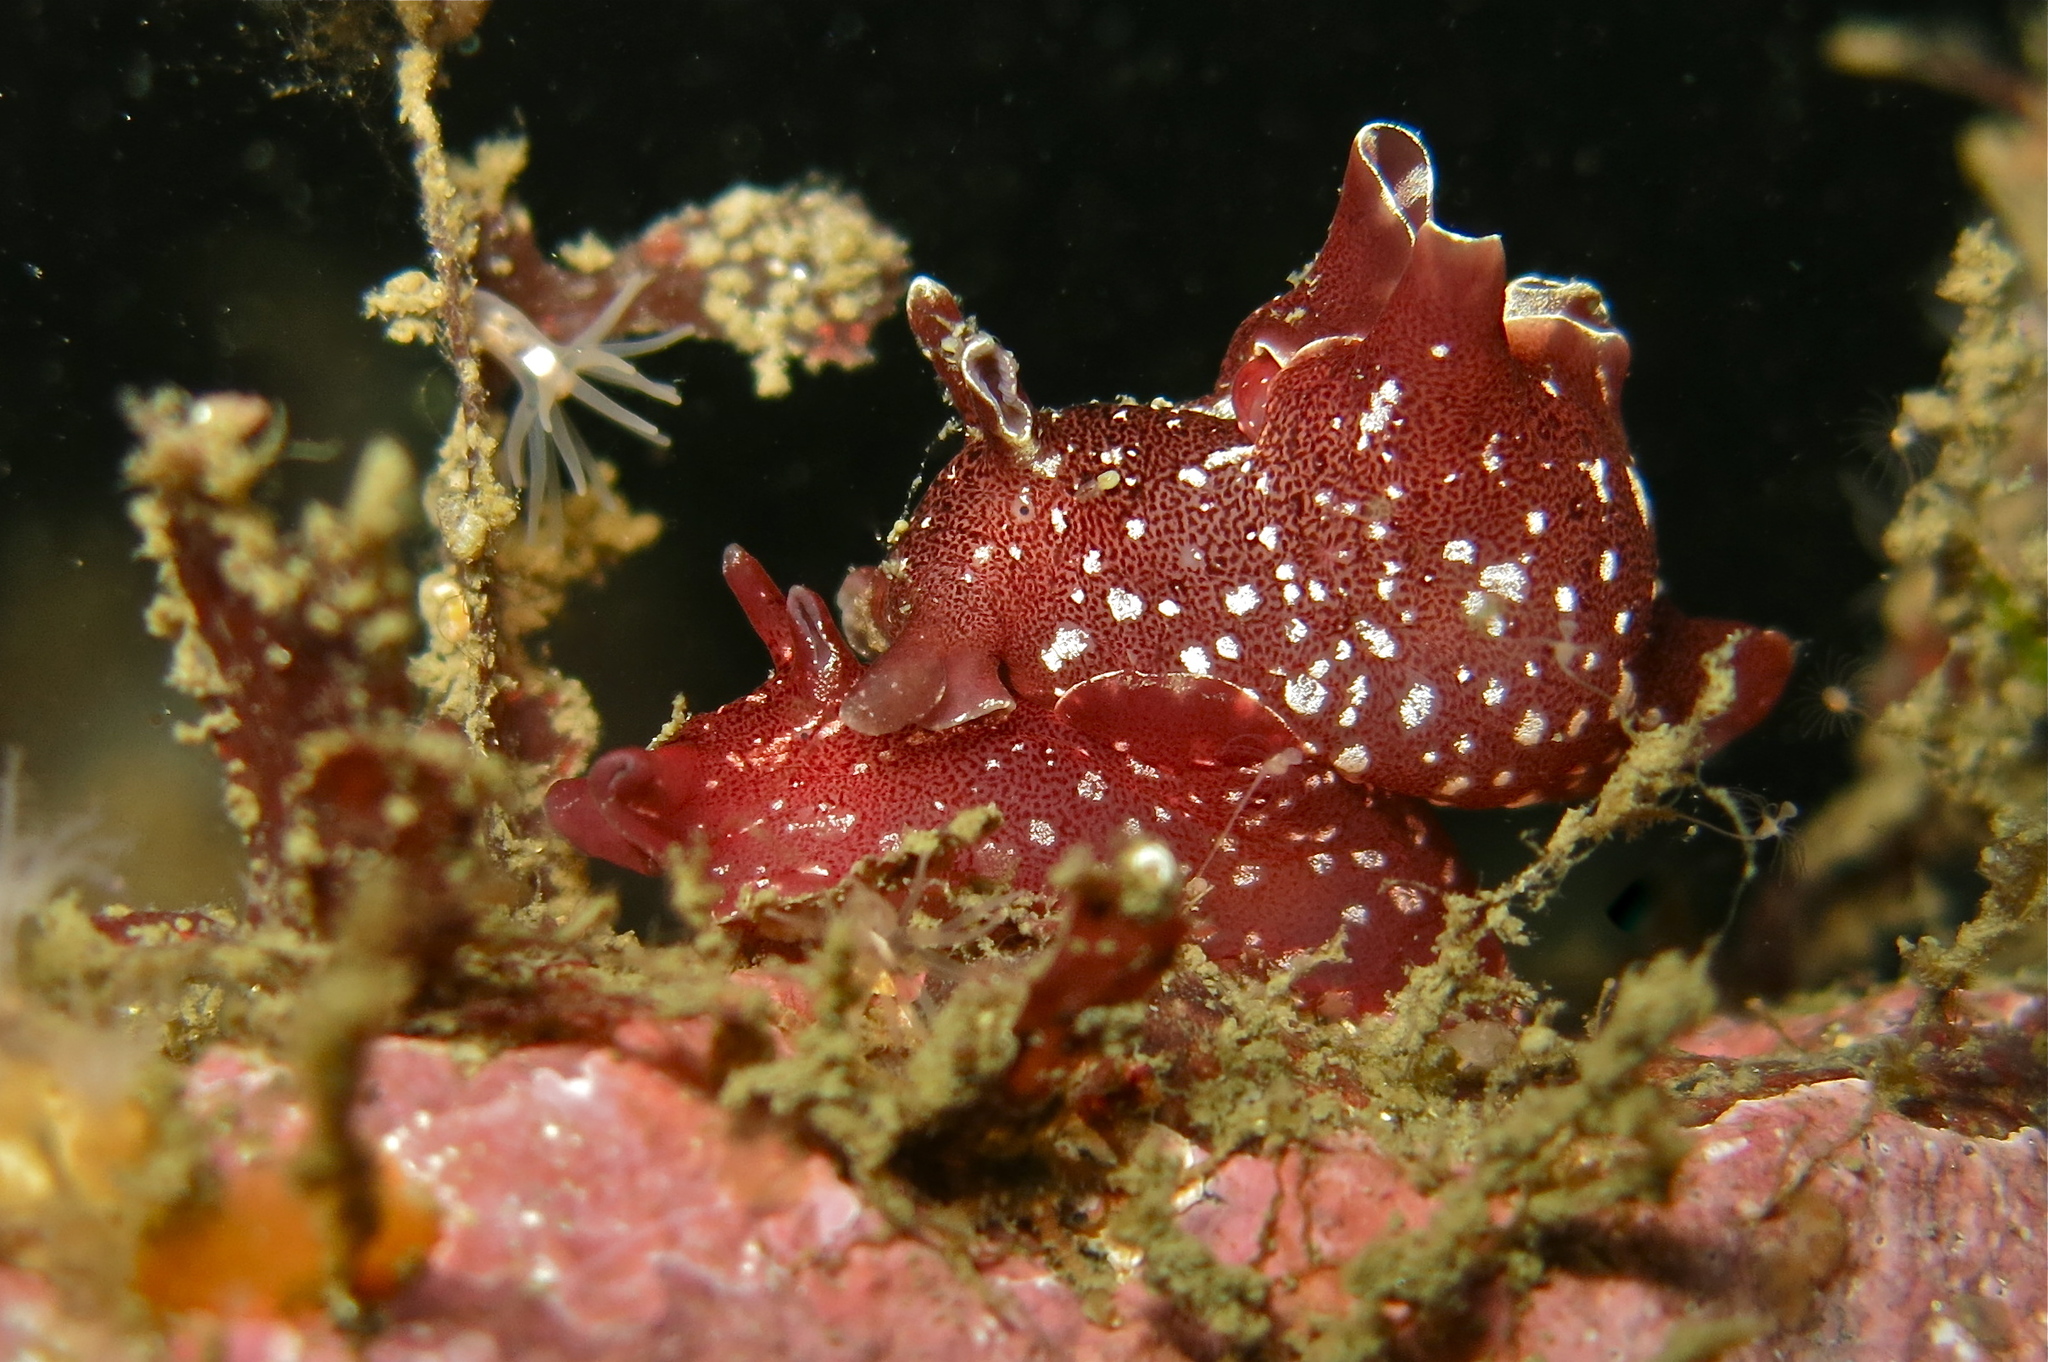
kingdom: Animalia
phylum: Mollusca
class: Gastropoda
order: Aplysiida
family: Aplysiidae
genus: Aplysia
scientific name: Aplysia punctata
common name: Common sea hare
